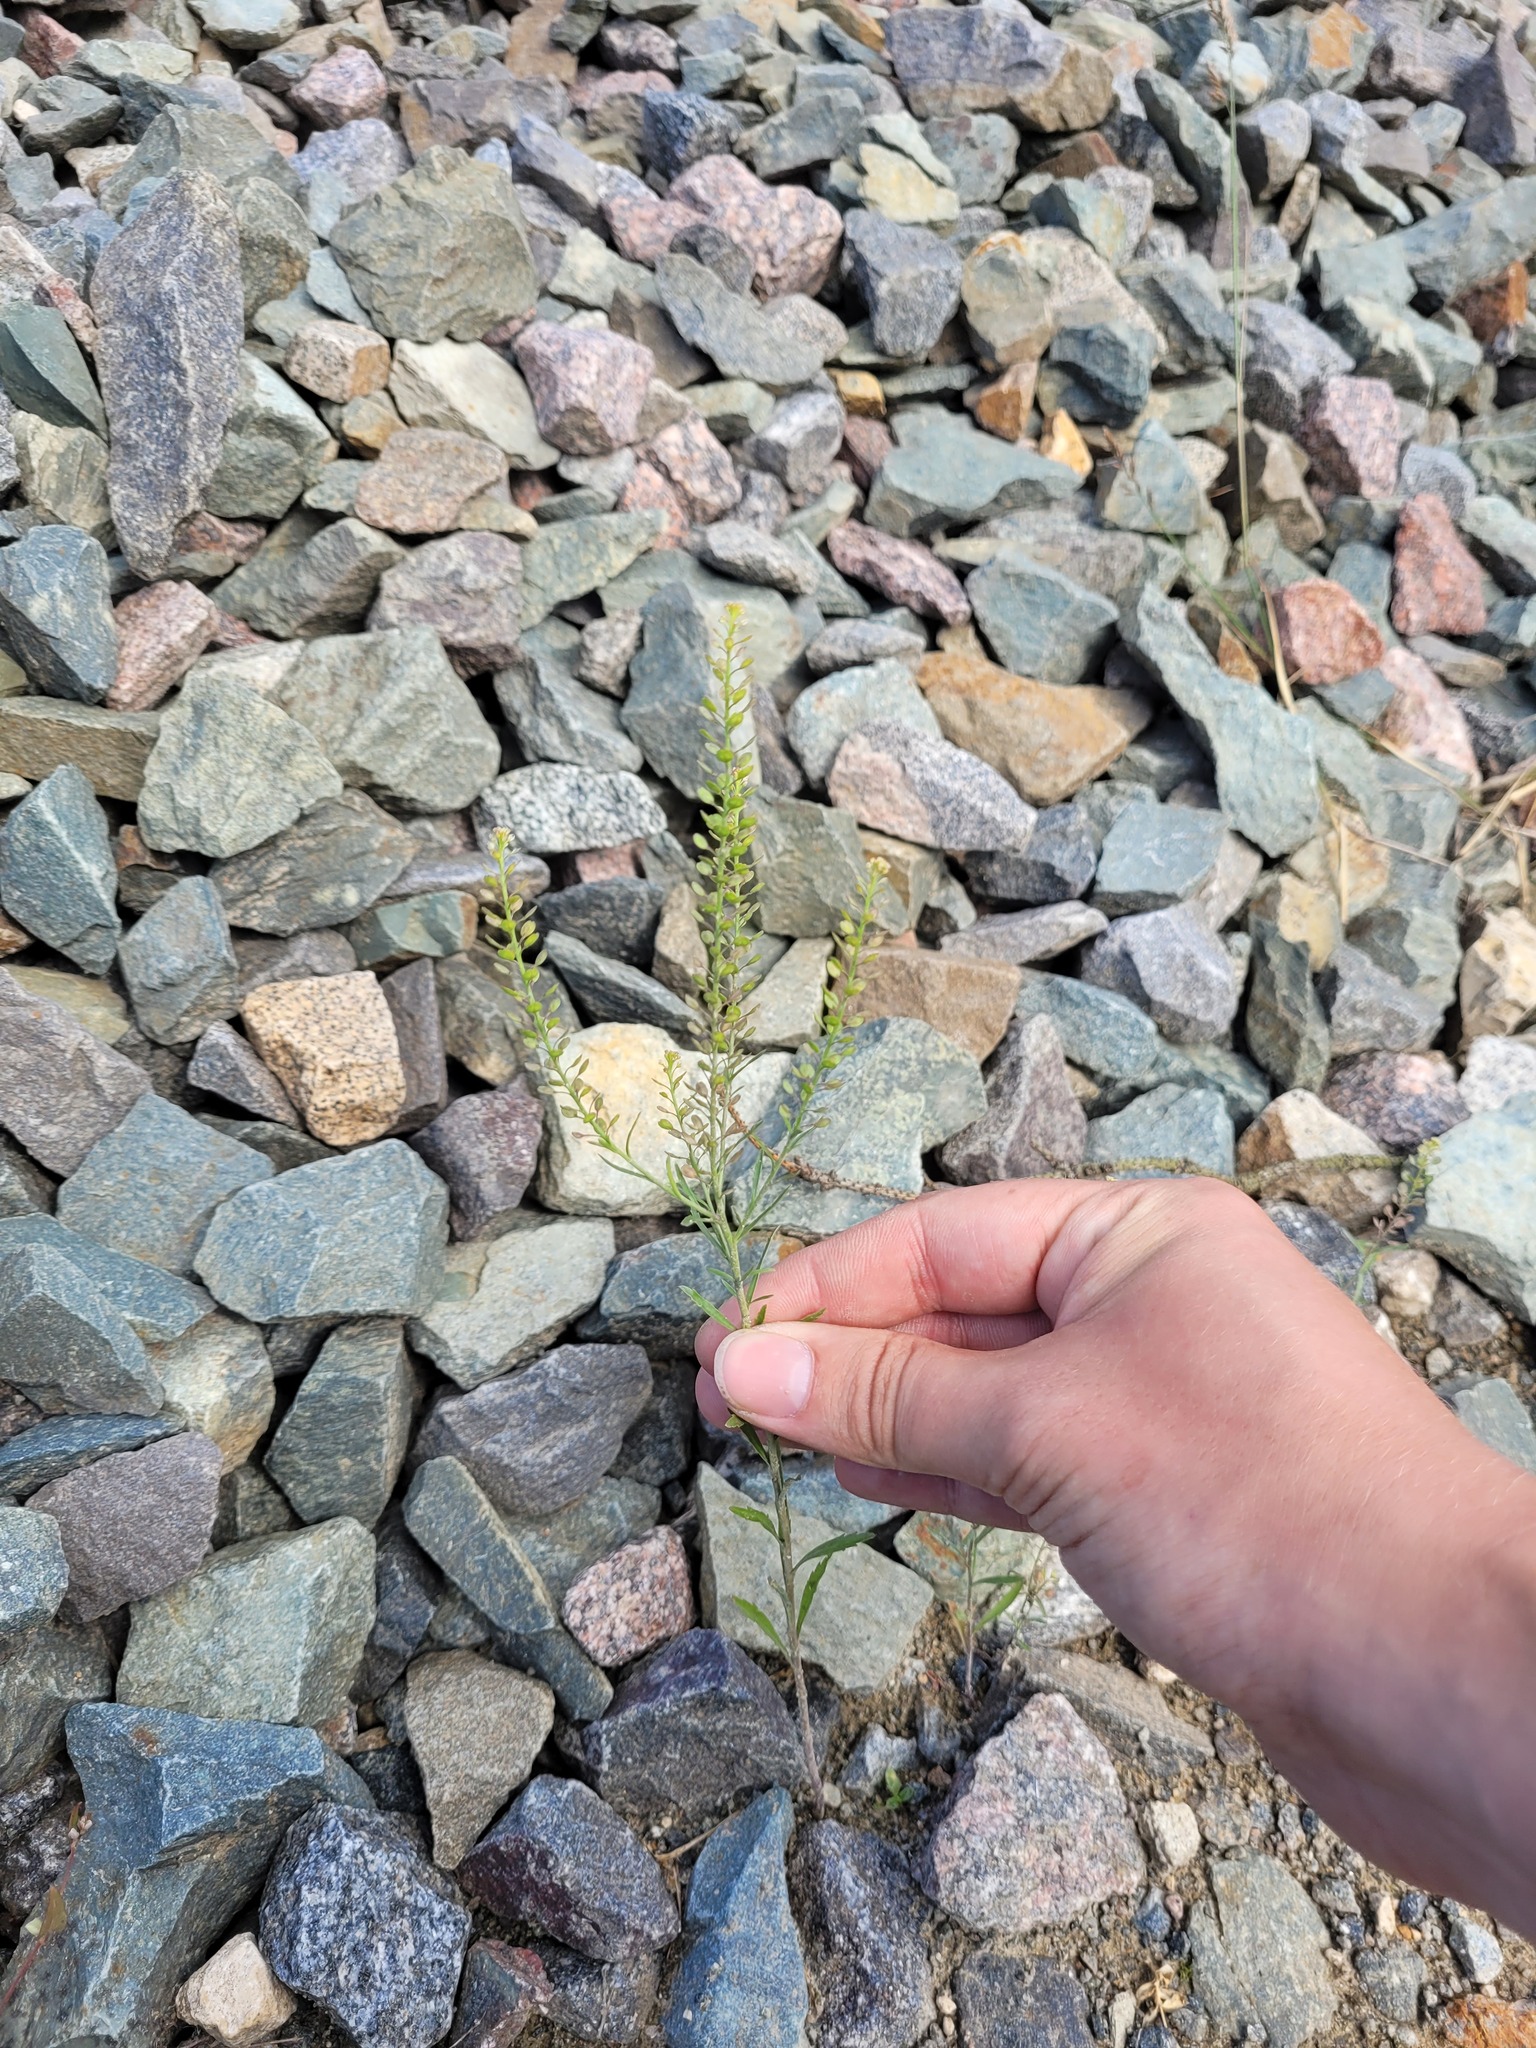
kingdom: Plantae
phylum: Tracheophyta
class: Magnoliopsida
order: Brassicales
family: Brassicaceae
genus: Lepidium
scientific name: Lepidium densiflorum
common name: Miner's pepperwort
